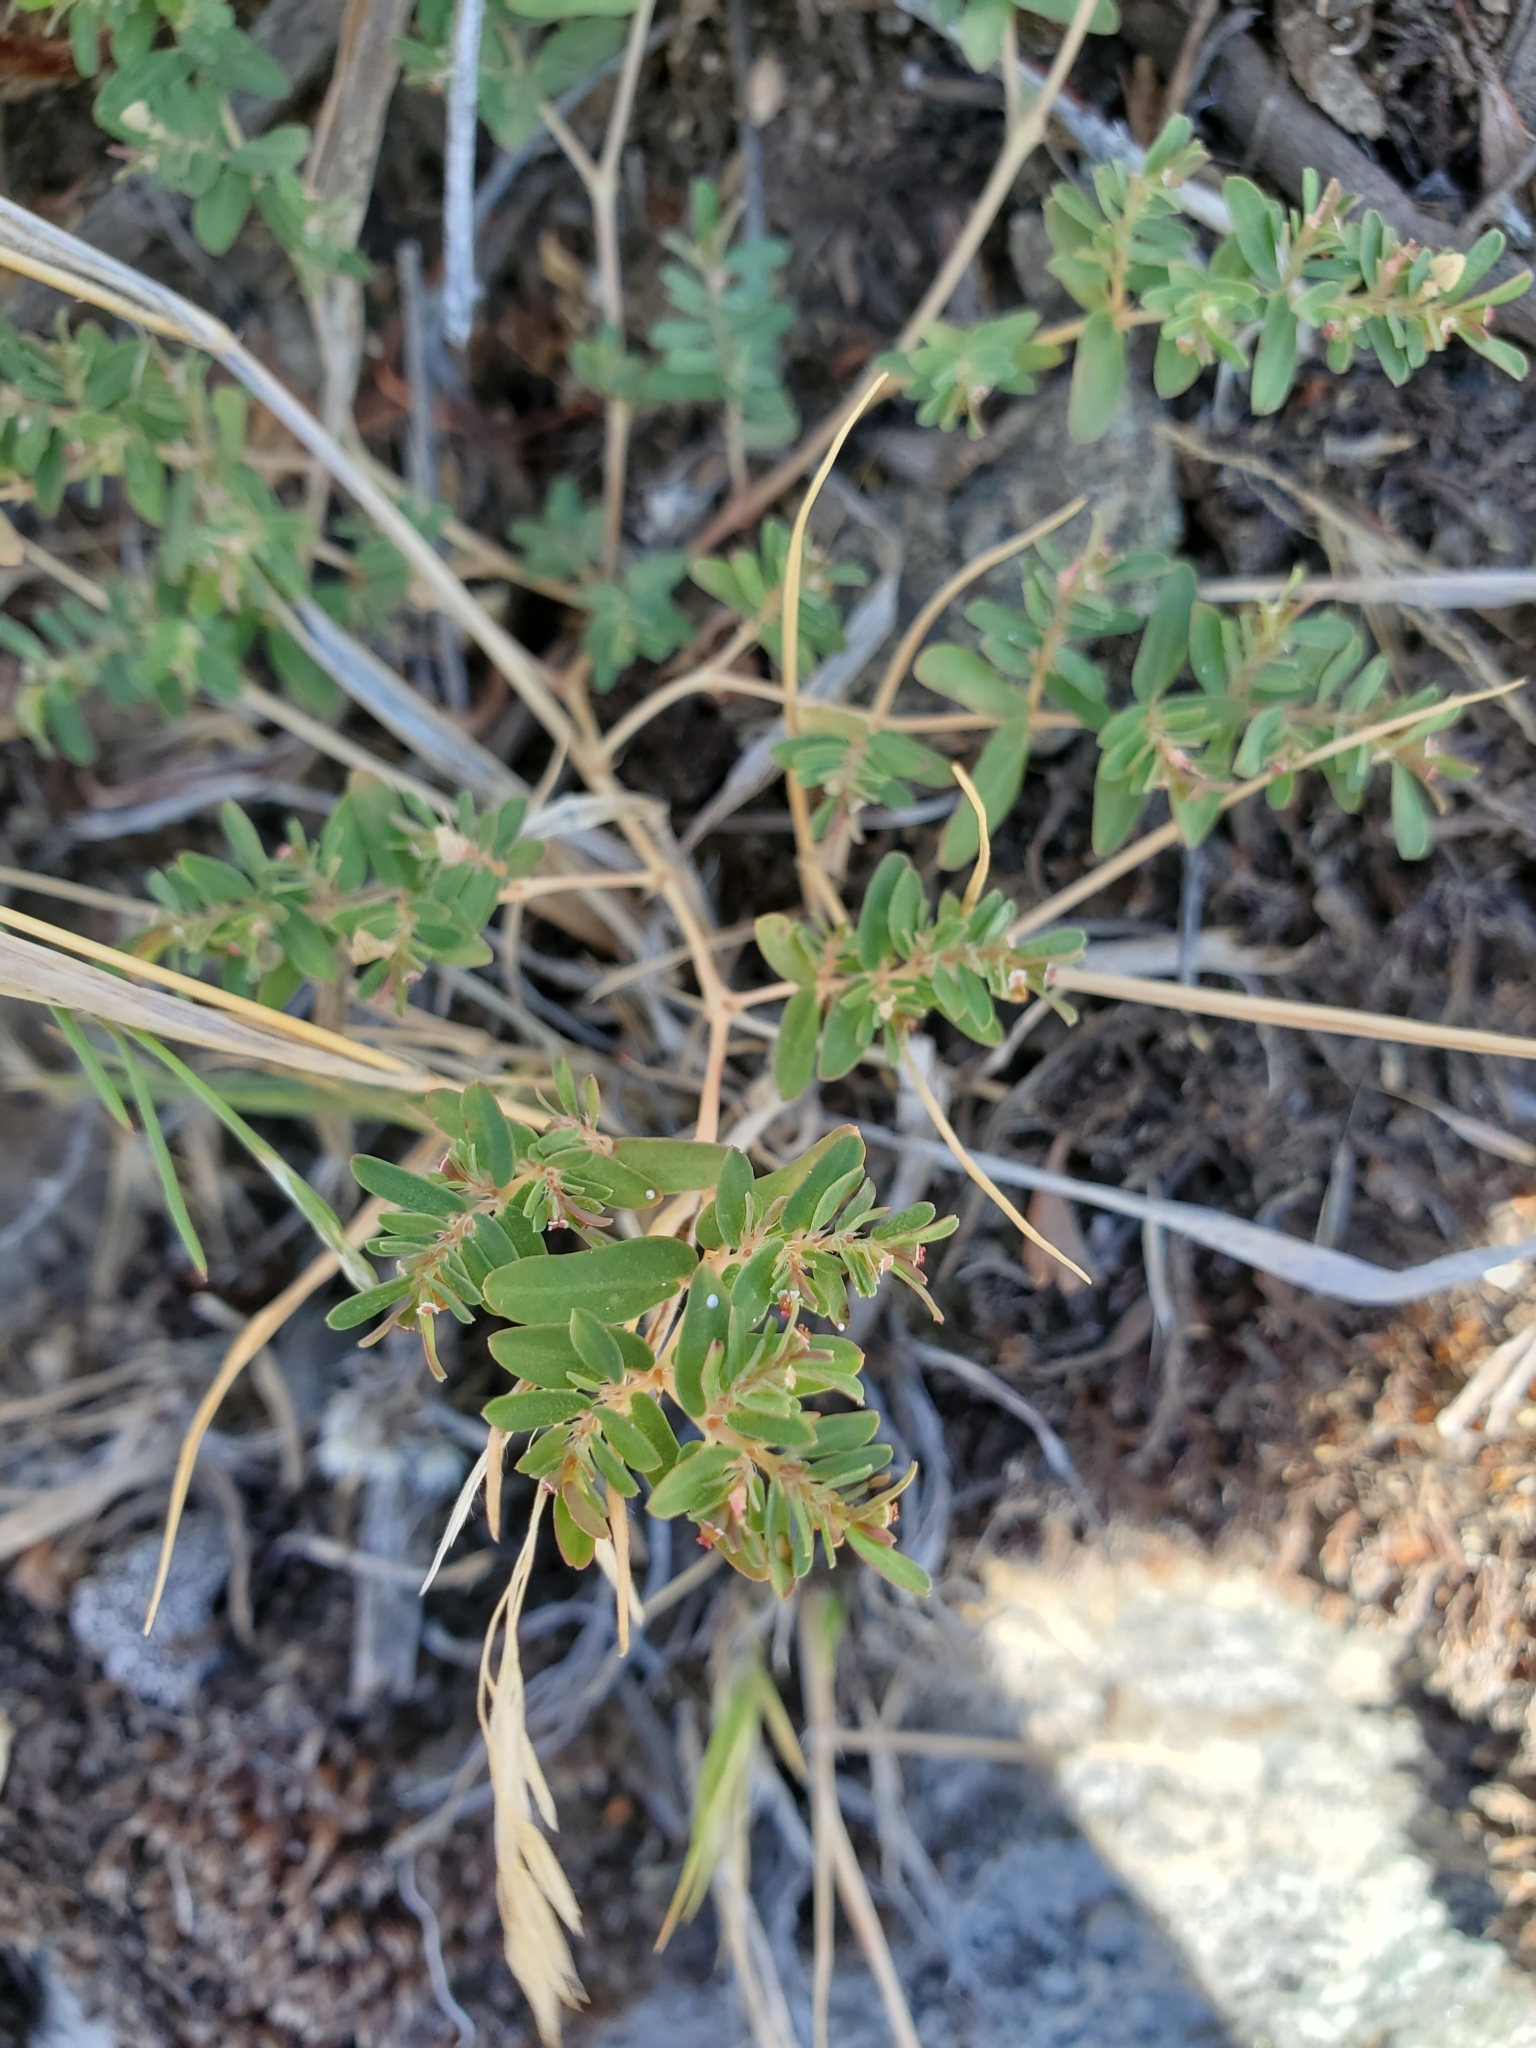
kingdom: Plantae
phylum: Tracheophyta
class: Magnoliopsida
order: Malpighiales
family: Euphorbiaceae
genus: Euphorbia
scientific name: Euphorbia glyptosperma
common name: Corrugate-seeded spurge
